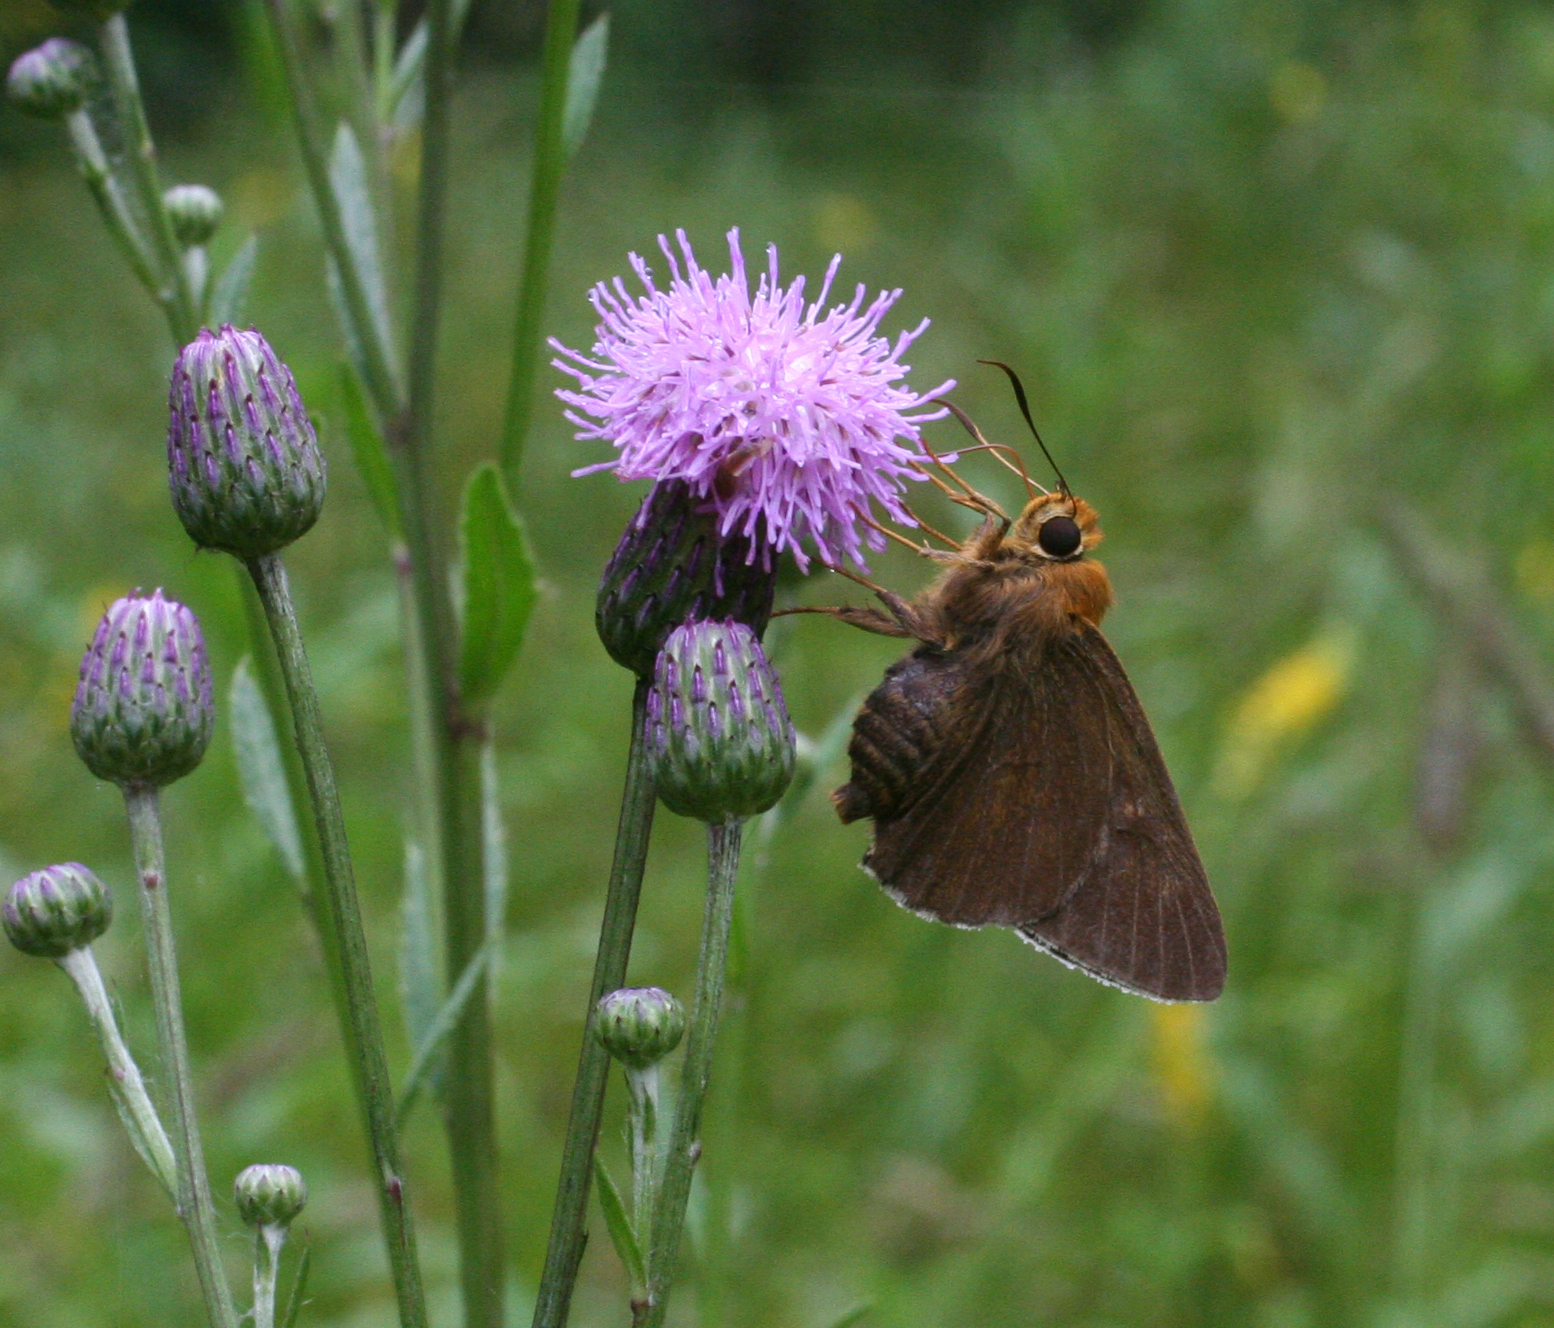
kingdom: Animalia
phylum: Arthropoda
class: Insecta
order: Lepidoptera
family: Hesperiidae
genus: Bibasis
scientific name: Bibasis aquilina
